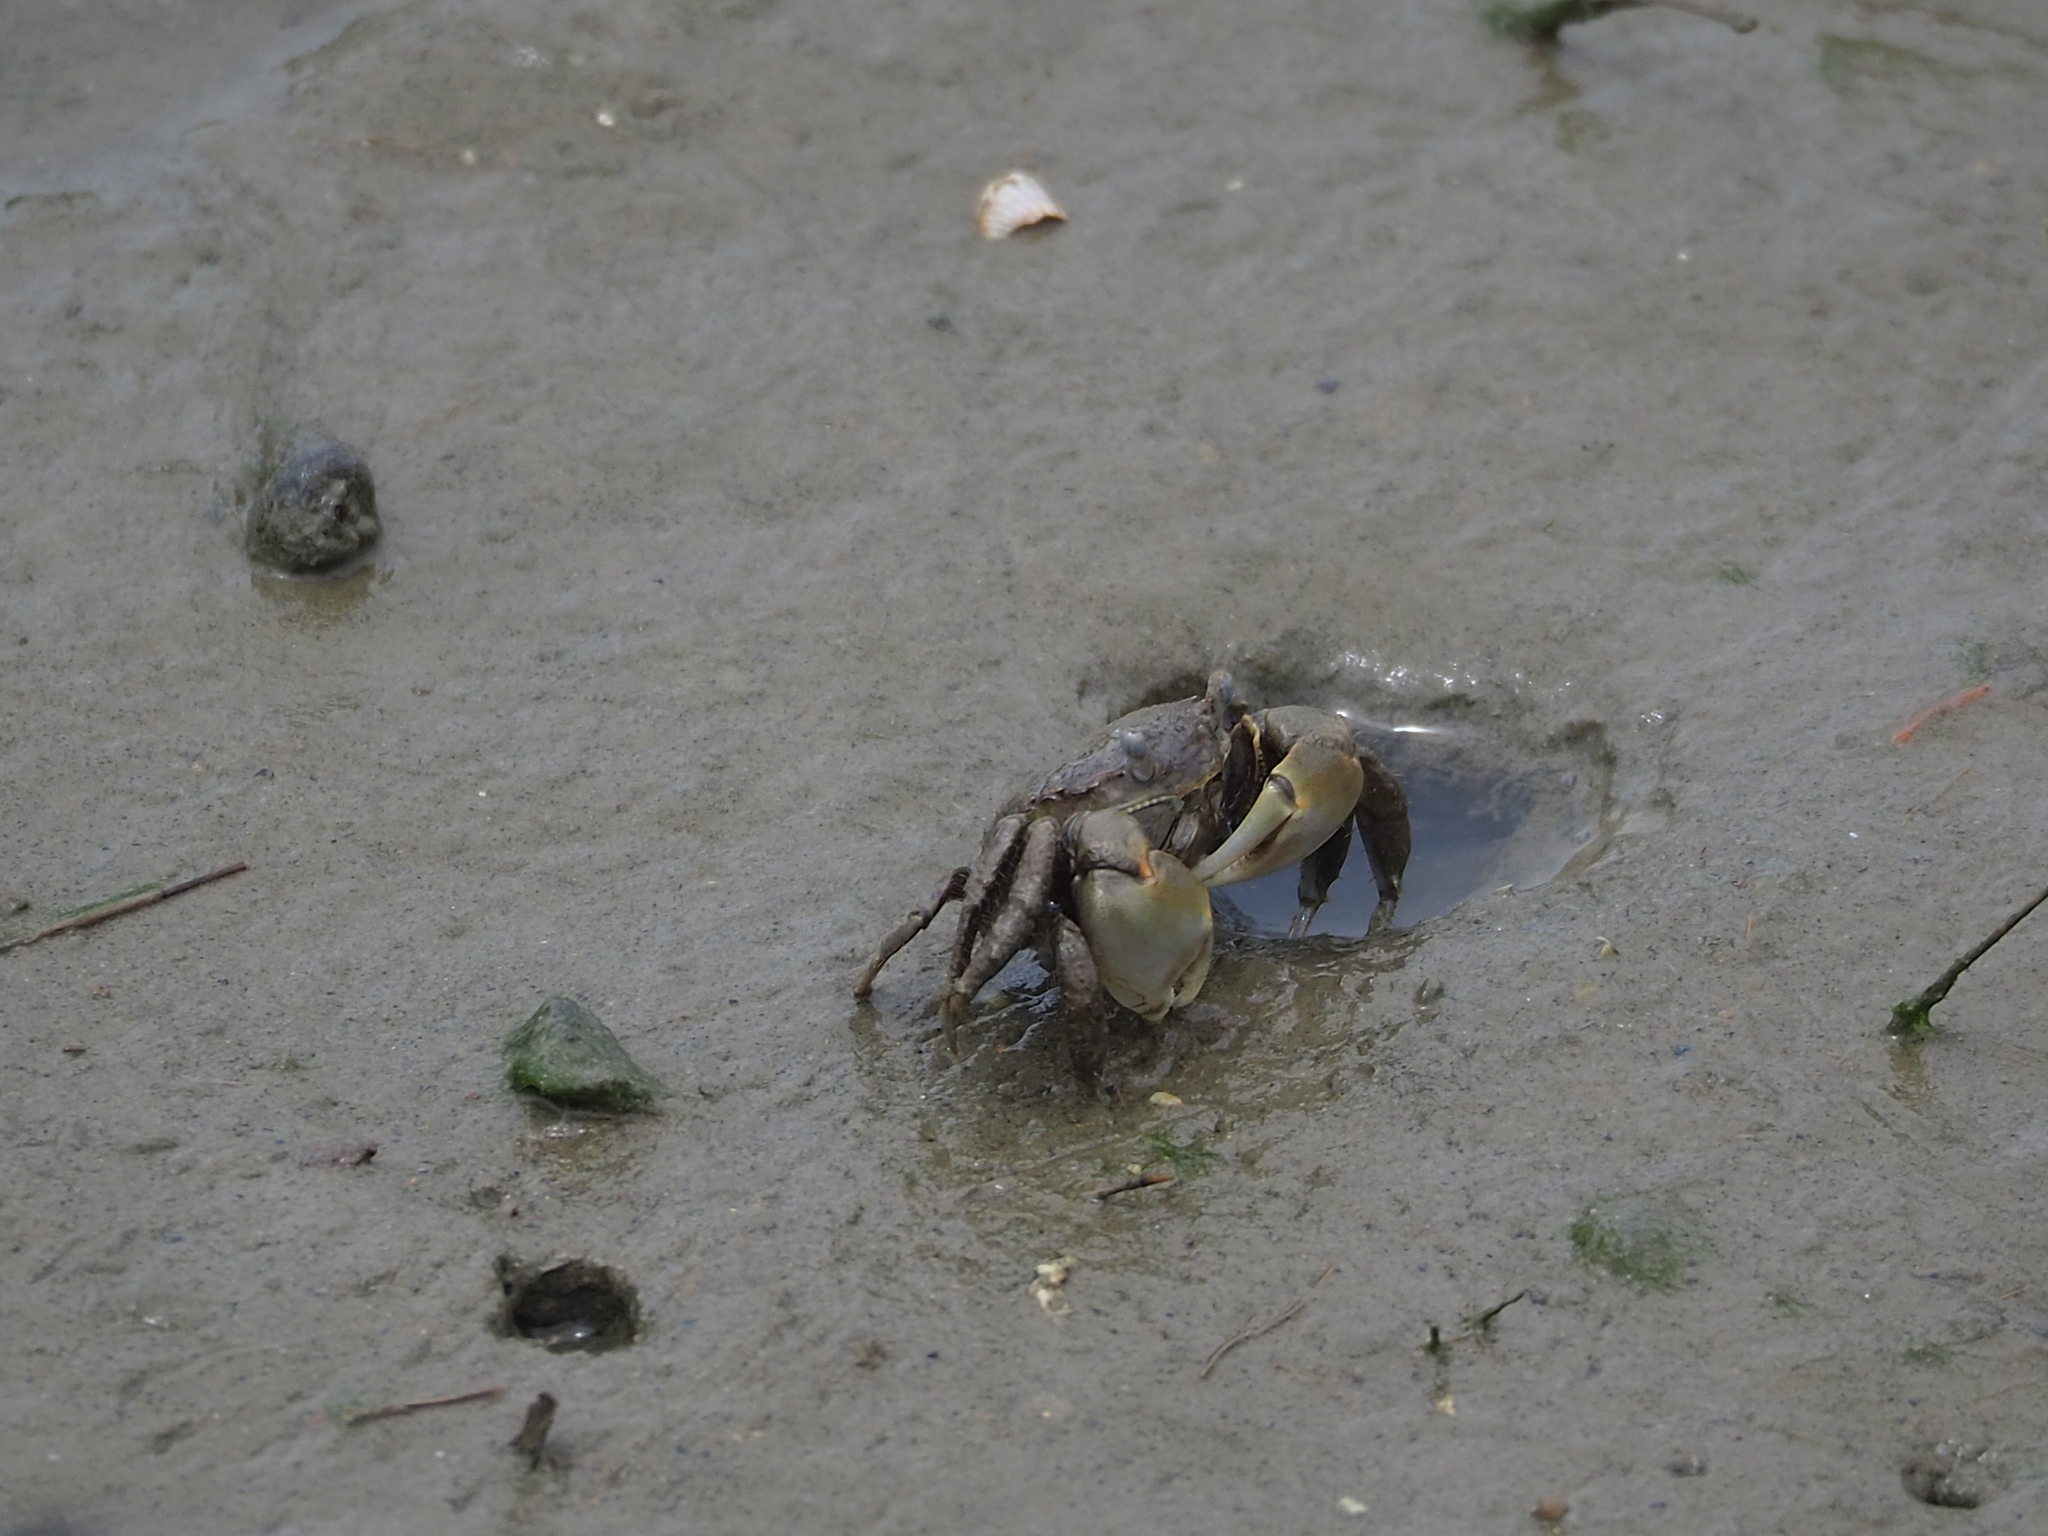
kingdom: Animalia
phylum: Arthropoda
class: Malacostraca
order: Decapoda
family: Varunidae
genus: Helicana
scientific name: Helicana doerjesi
